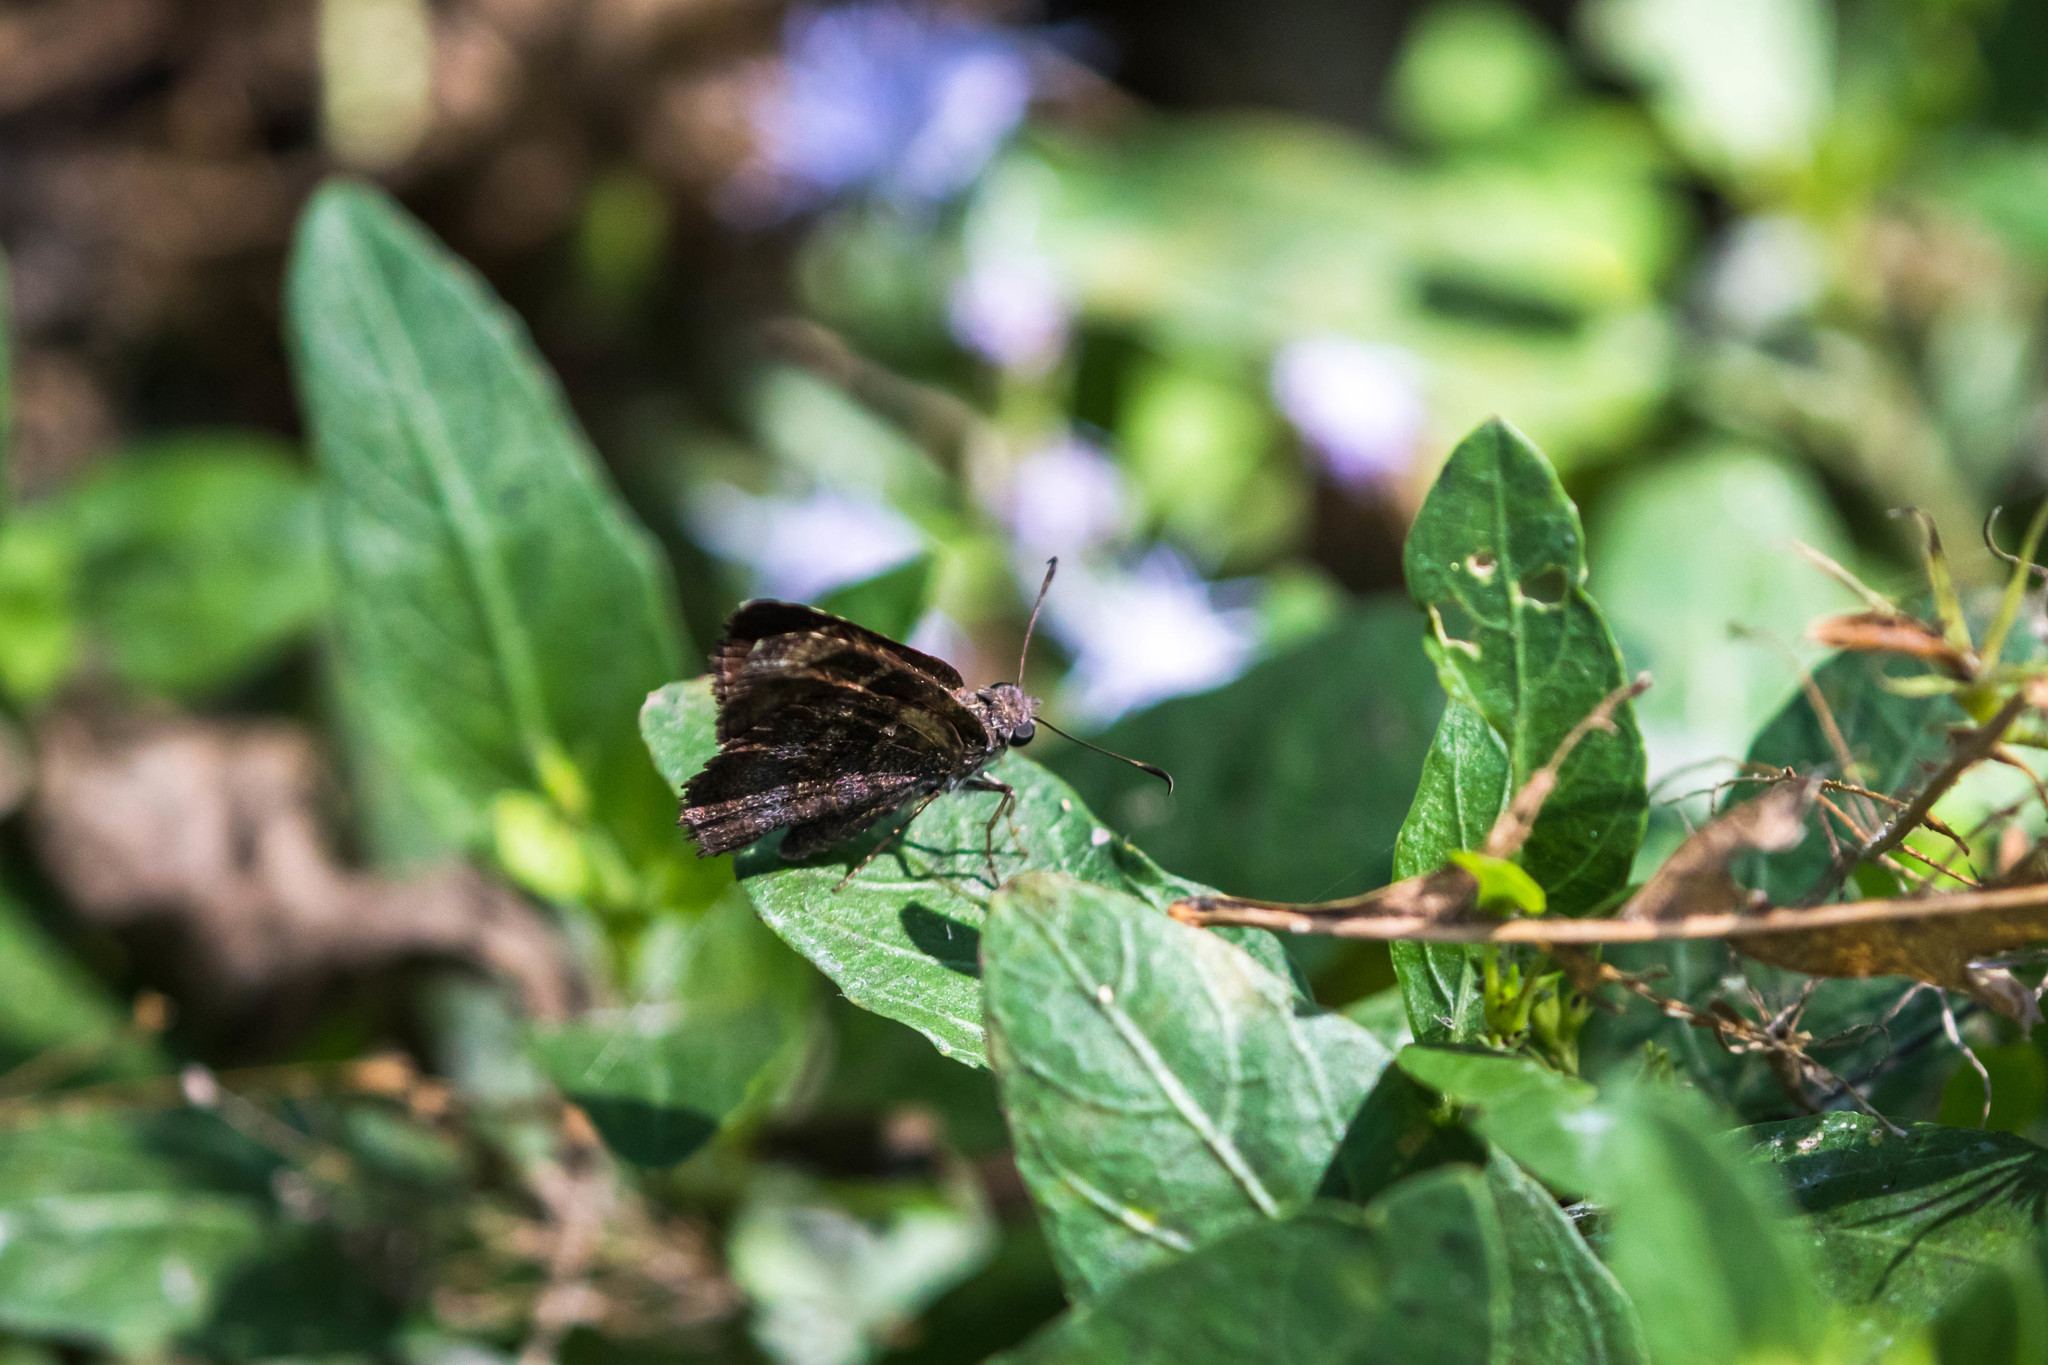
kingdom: Animalia
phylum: Arthropoda
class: Insecta
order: Lepidoptera
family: Hesperiidae
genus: Caicella
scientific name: Caicella calchas
